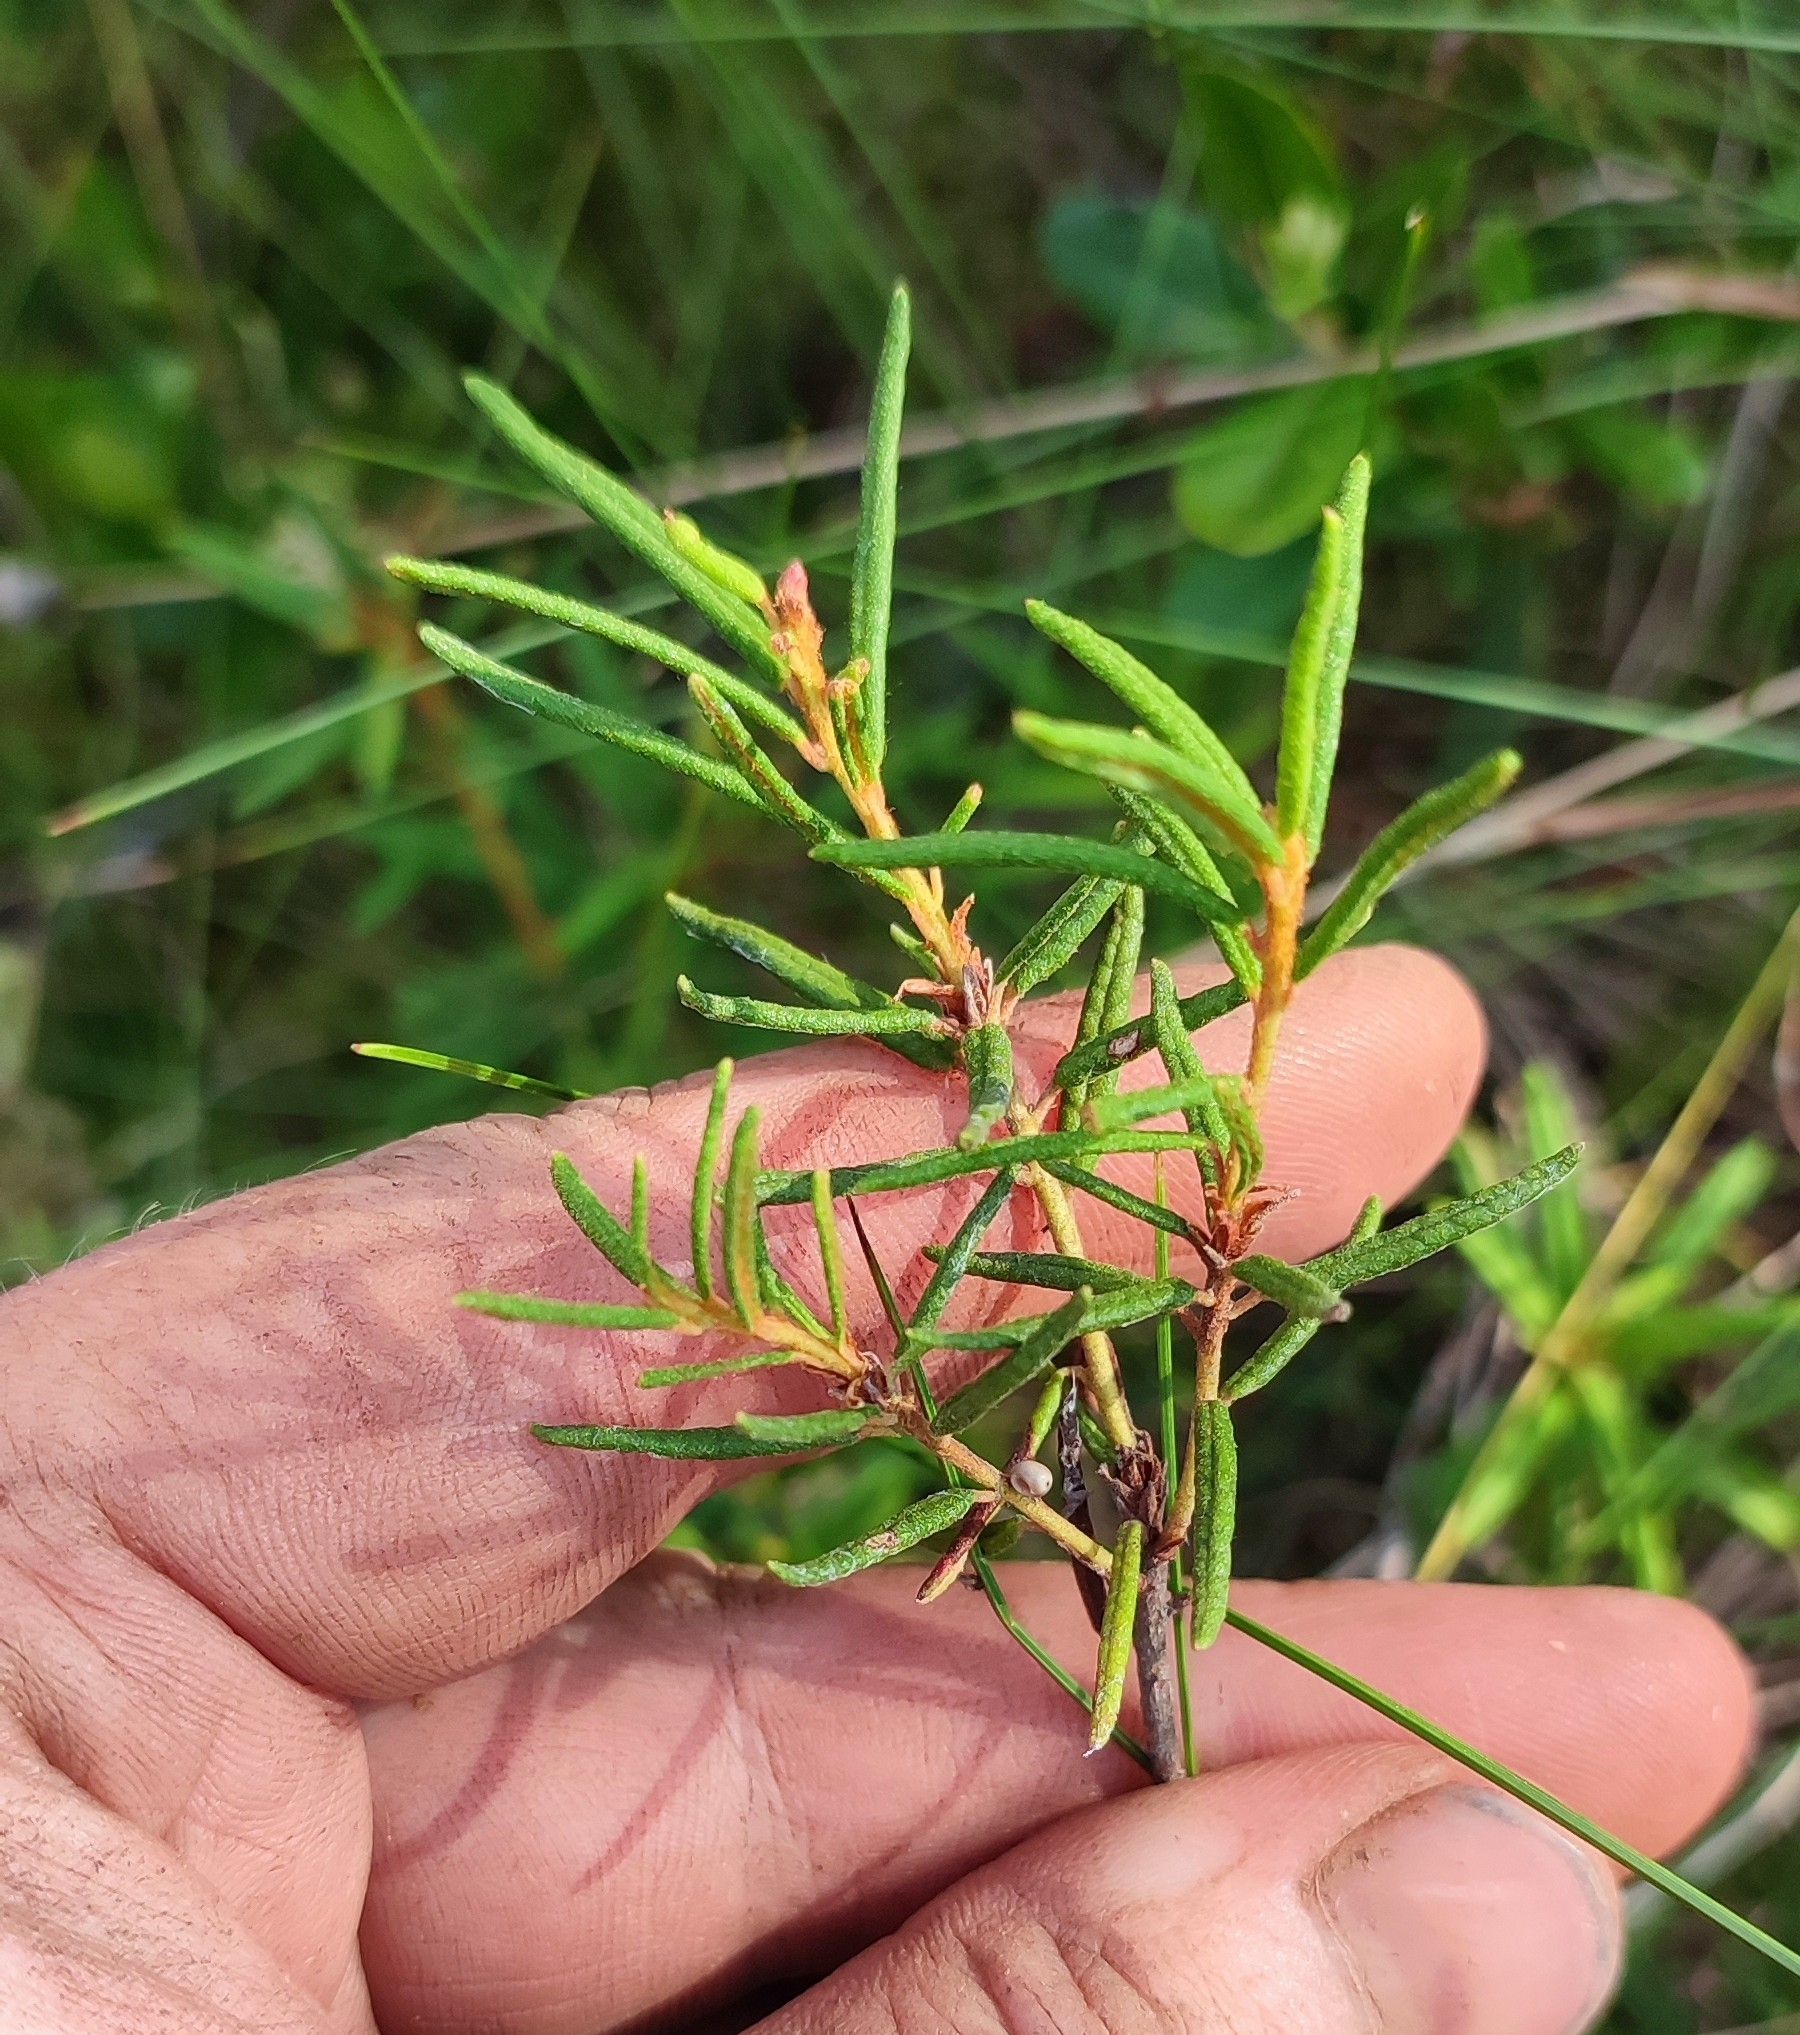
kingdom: Plantae
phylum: Tracheophyta
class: Magnoliopsida
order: Ericales
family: Ericaceae
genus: Rhododendron
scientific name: Rhododendron tomentosum
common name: Marsh labrador tea
